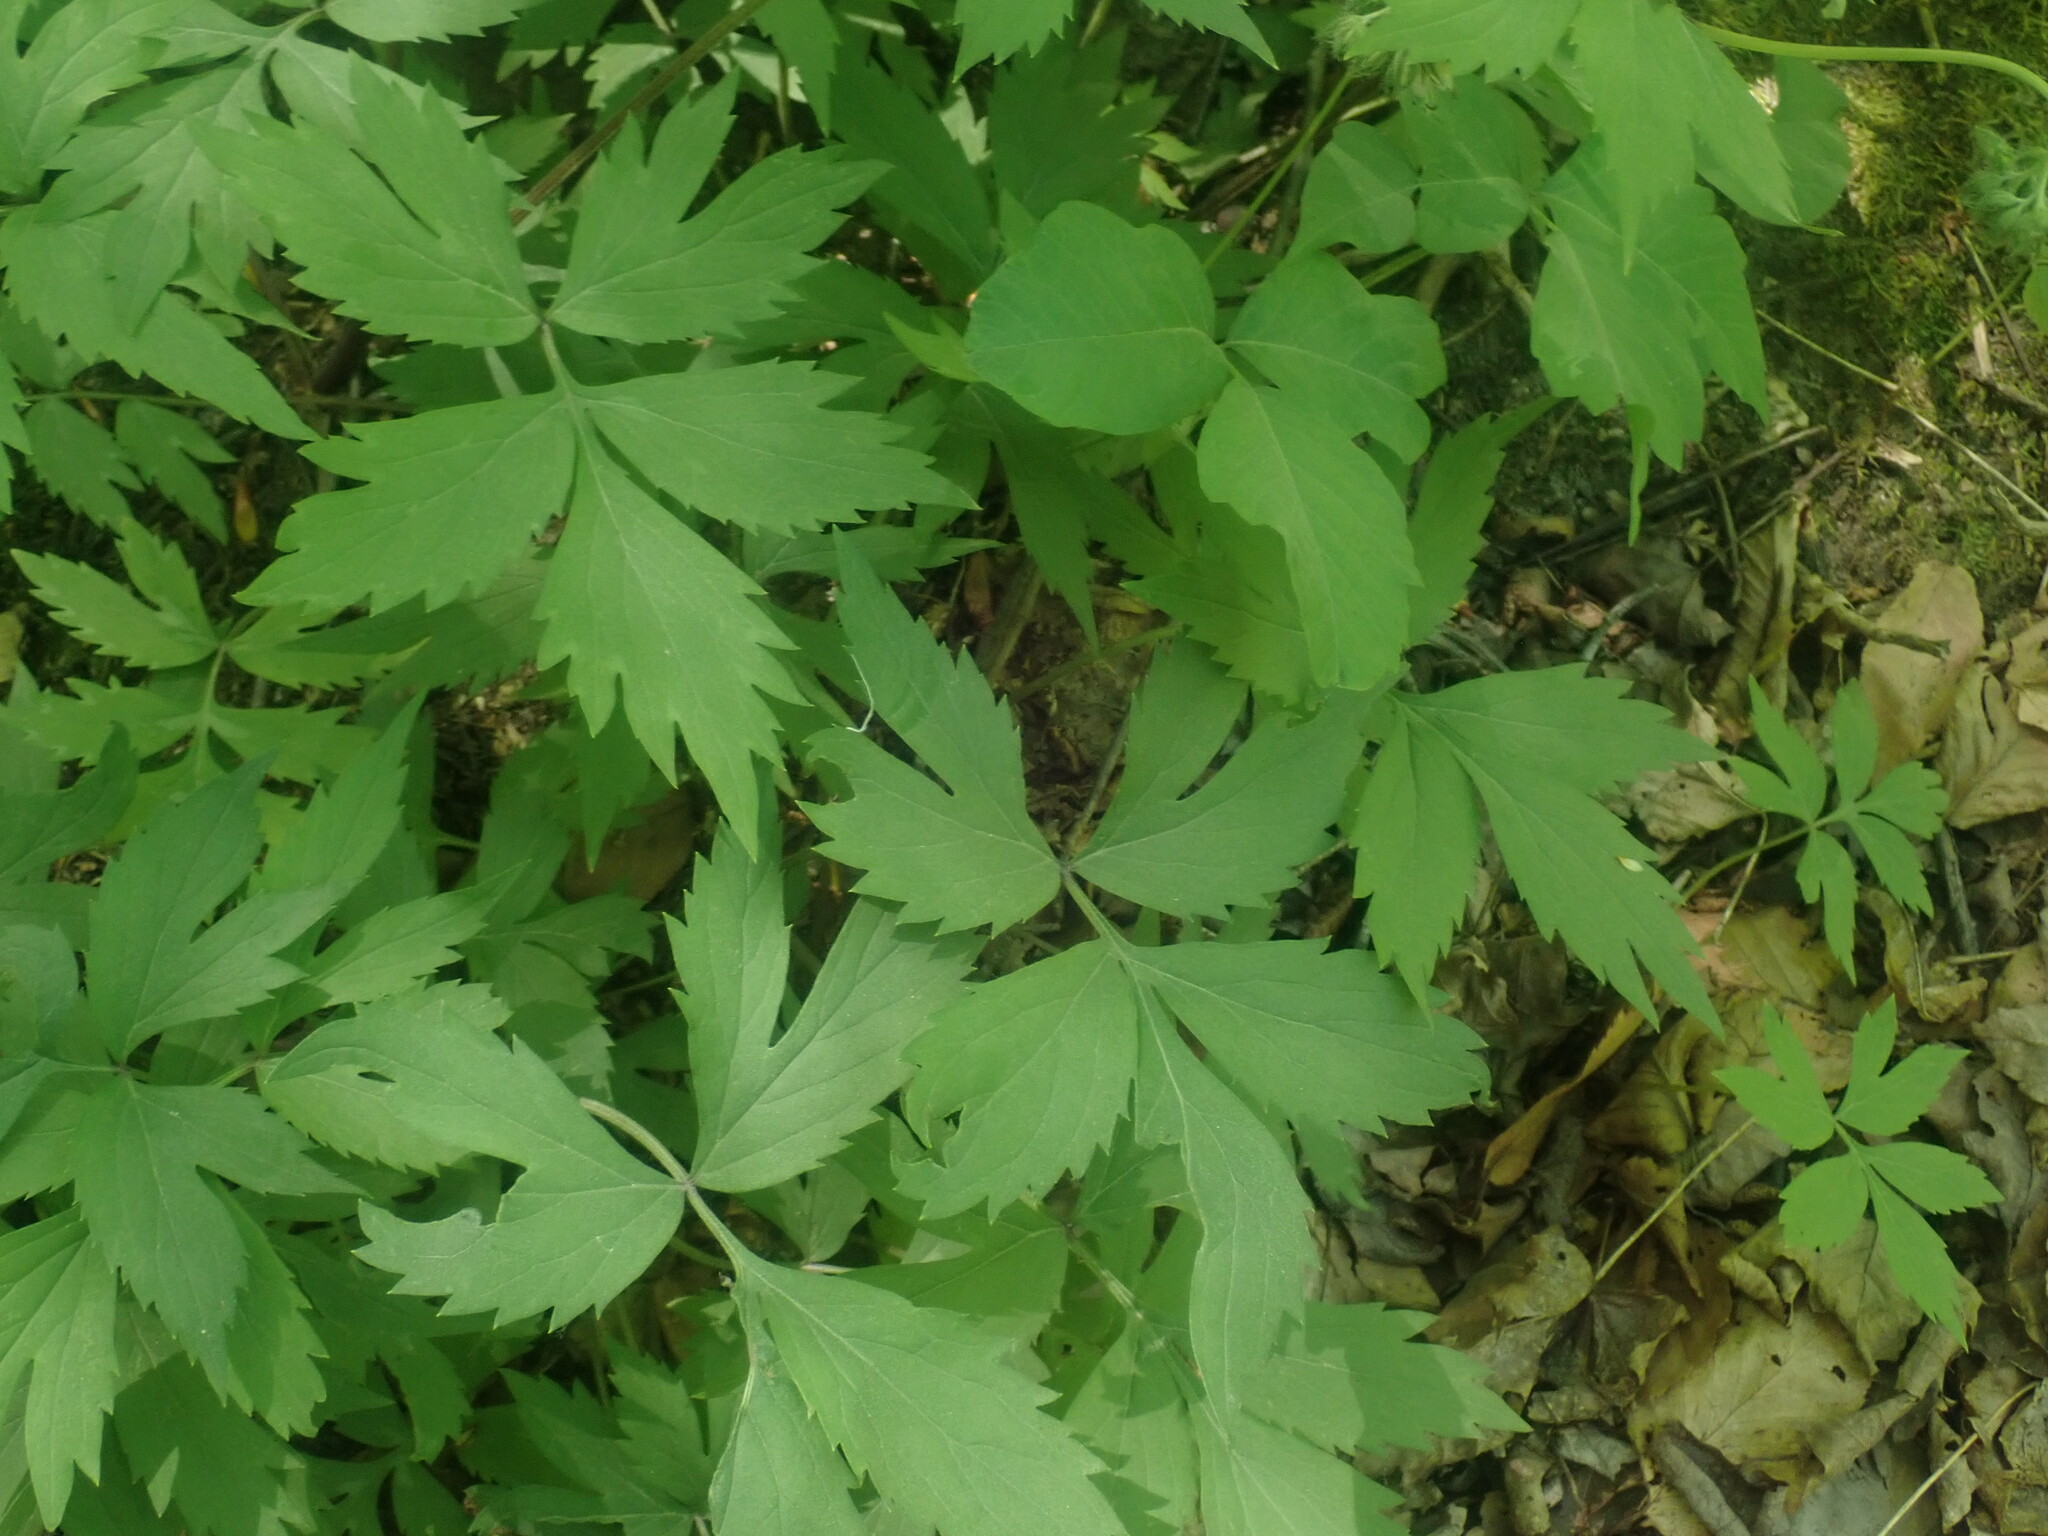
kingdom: Plantae
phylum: Tracheophyta
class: Magnoliopsida
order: Boraginales
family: Hydrophyllaceae
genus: Hydrophyllum
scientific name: Hydrophyllum virginianum
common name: Virginia waterleaf
